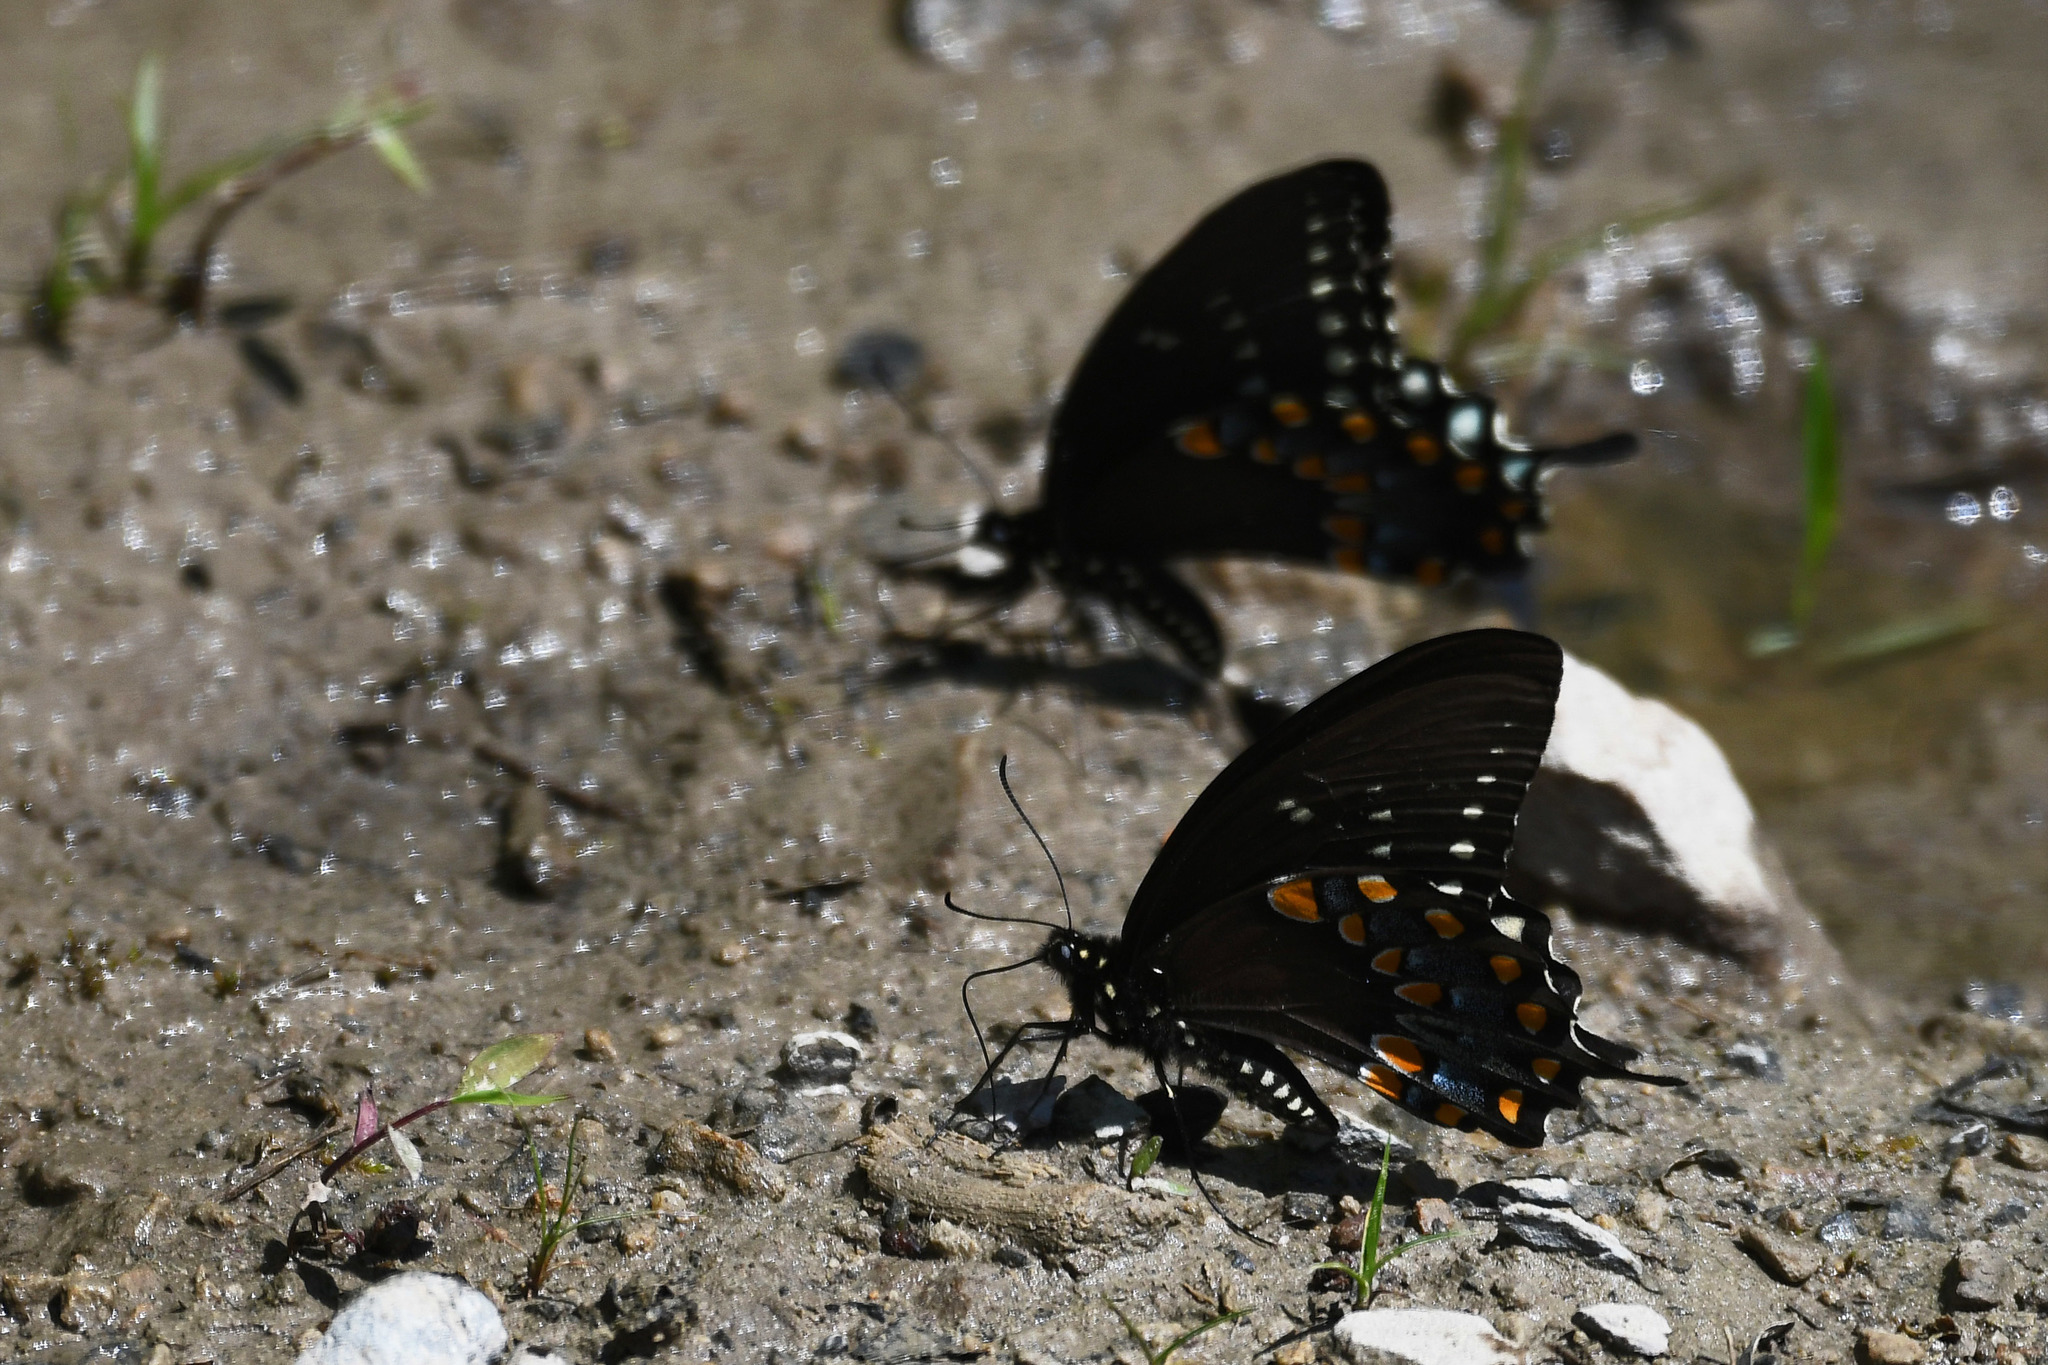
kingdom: Animalia
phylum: Arthropoda
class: Insecta
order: Lepidoptera
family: Papilionidae
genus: Papilio
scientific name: Papilio troilus
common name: Spicebush swallowtail
